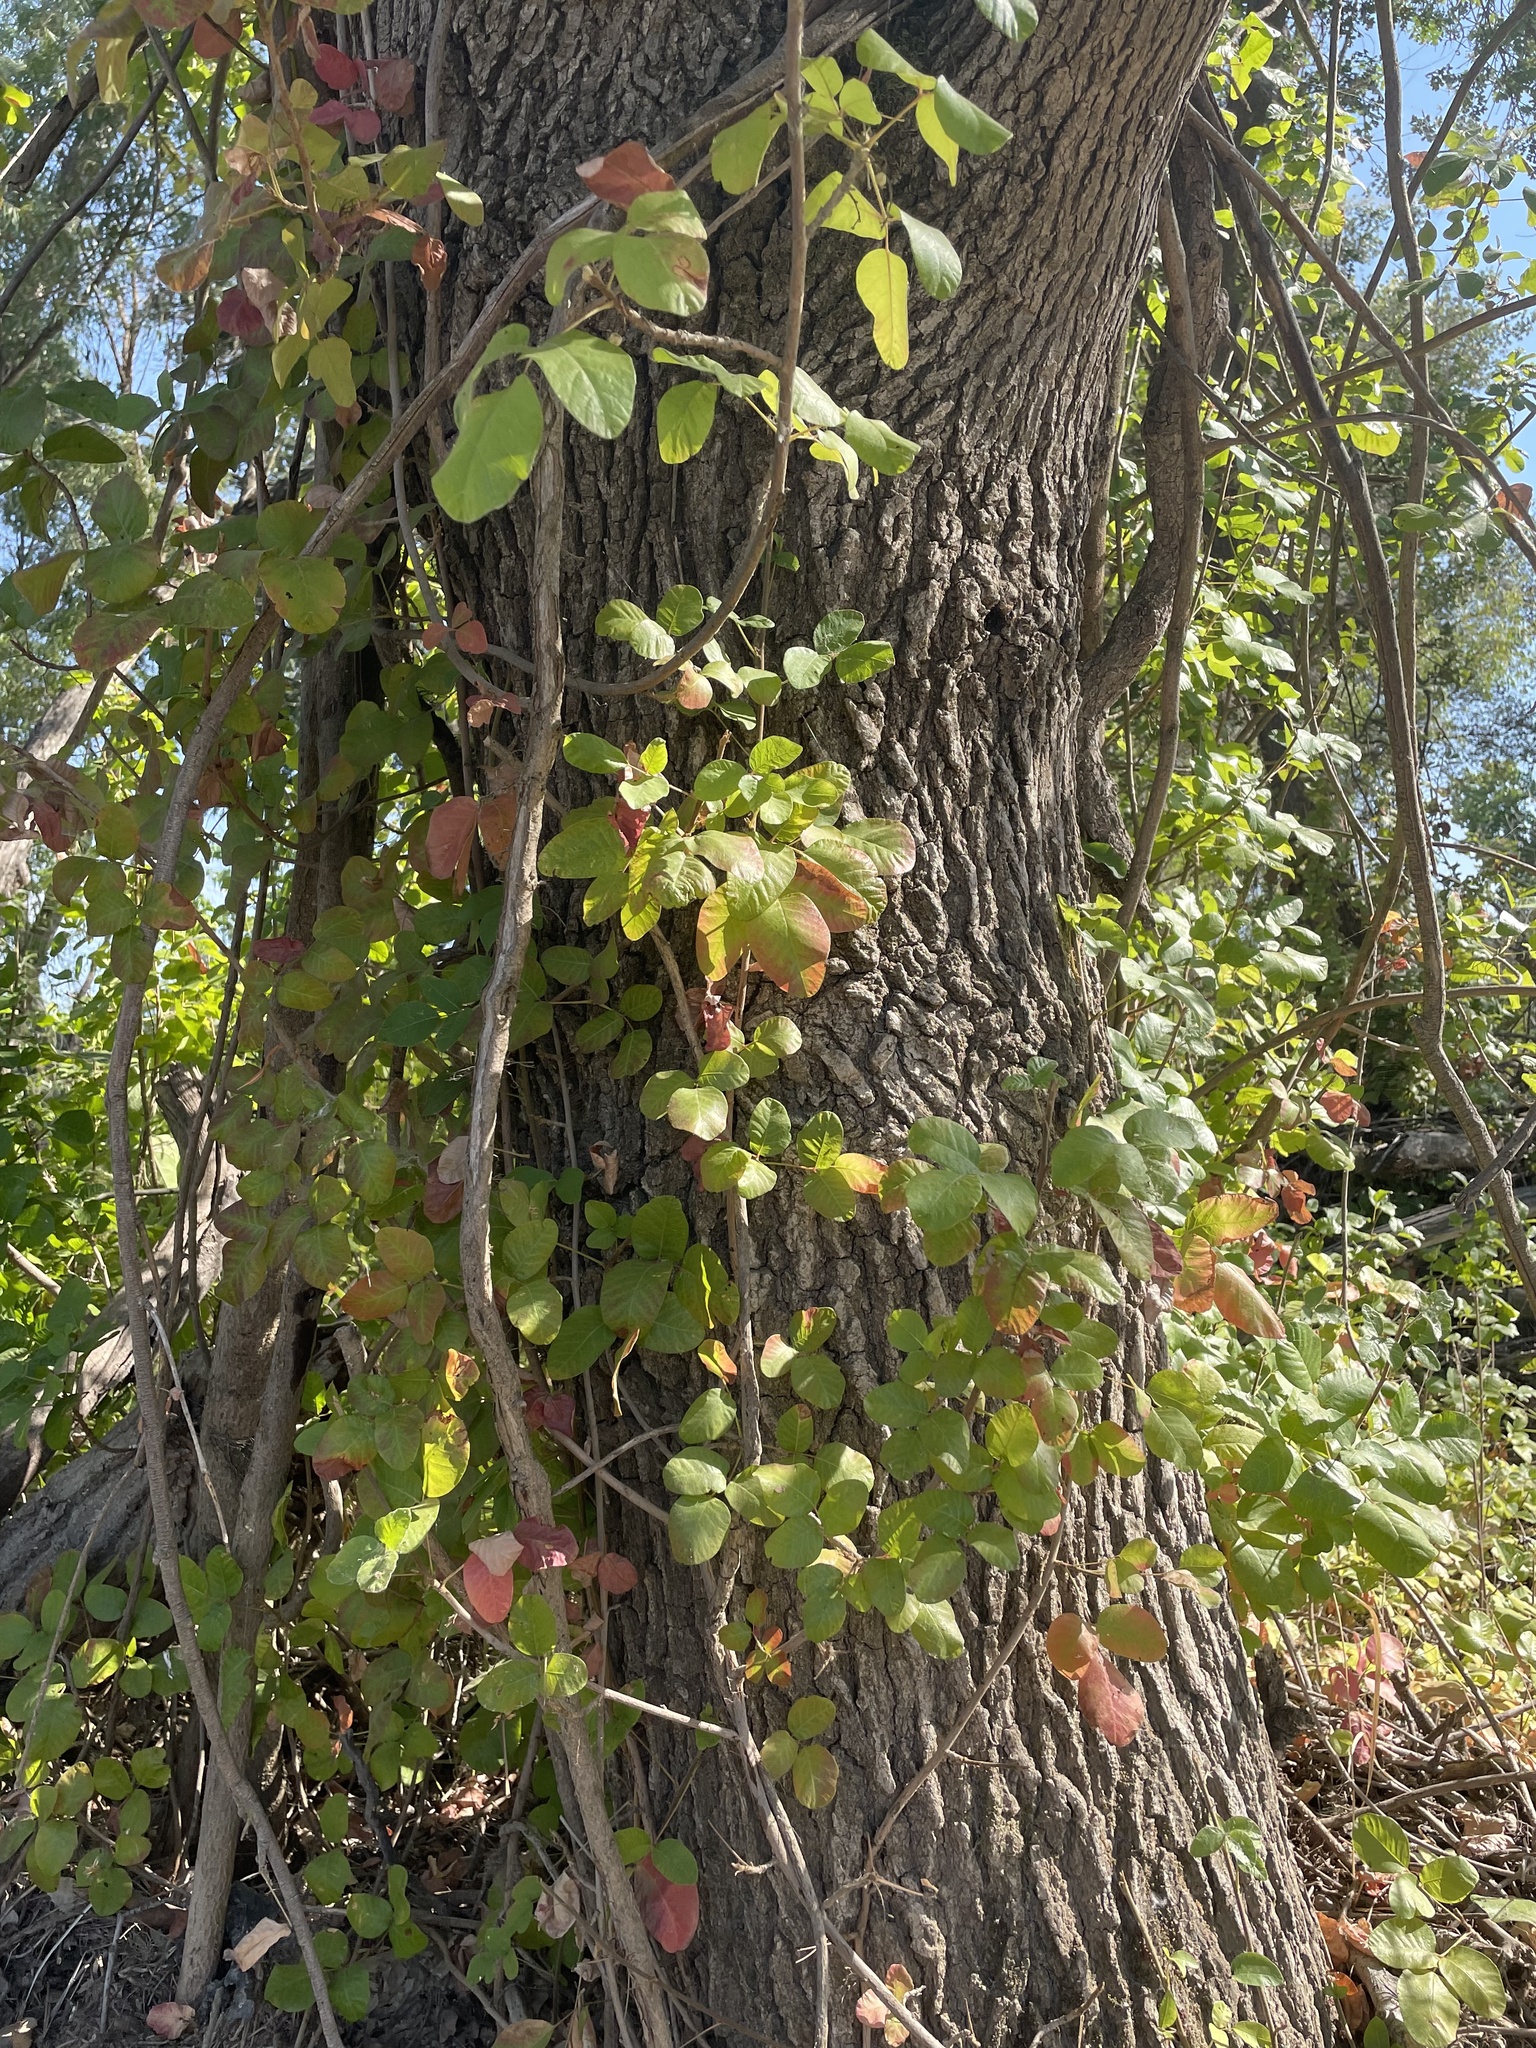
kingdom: Plantae
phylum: Tracheophyta
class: Magnoliopsida
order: Sapindales
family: Anacardiaceae
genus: Toxicodendron
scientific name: Toxicodendron diversilobum
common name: Pacific poison-oak
